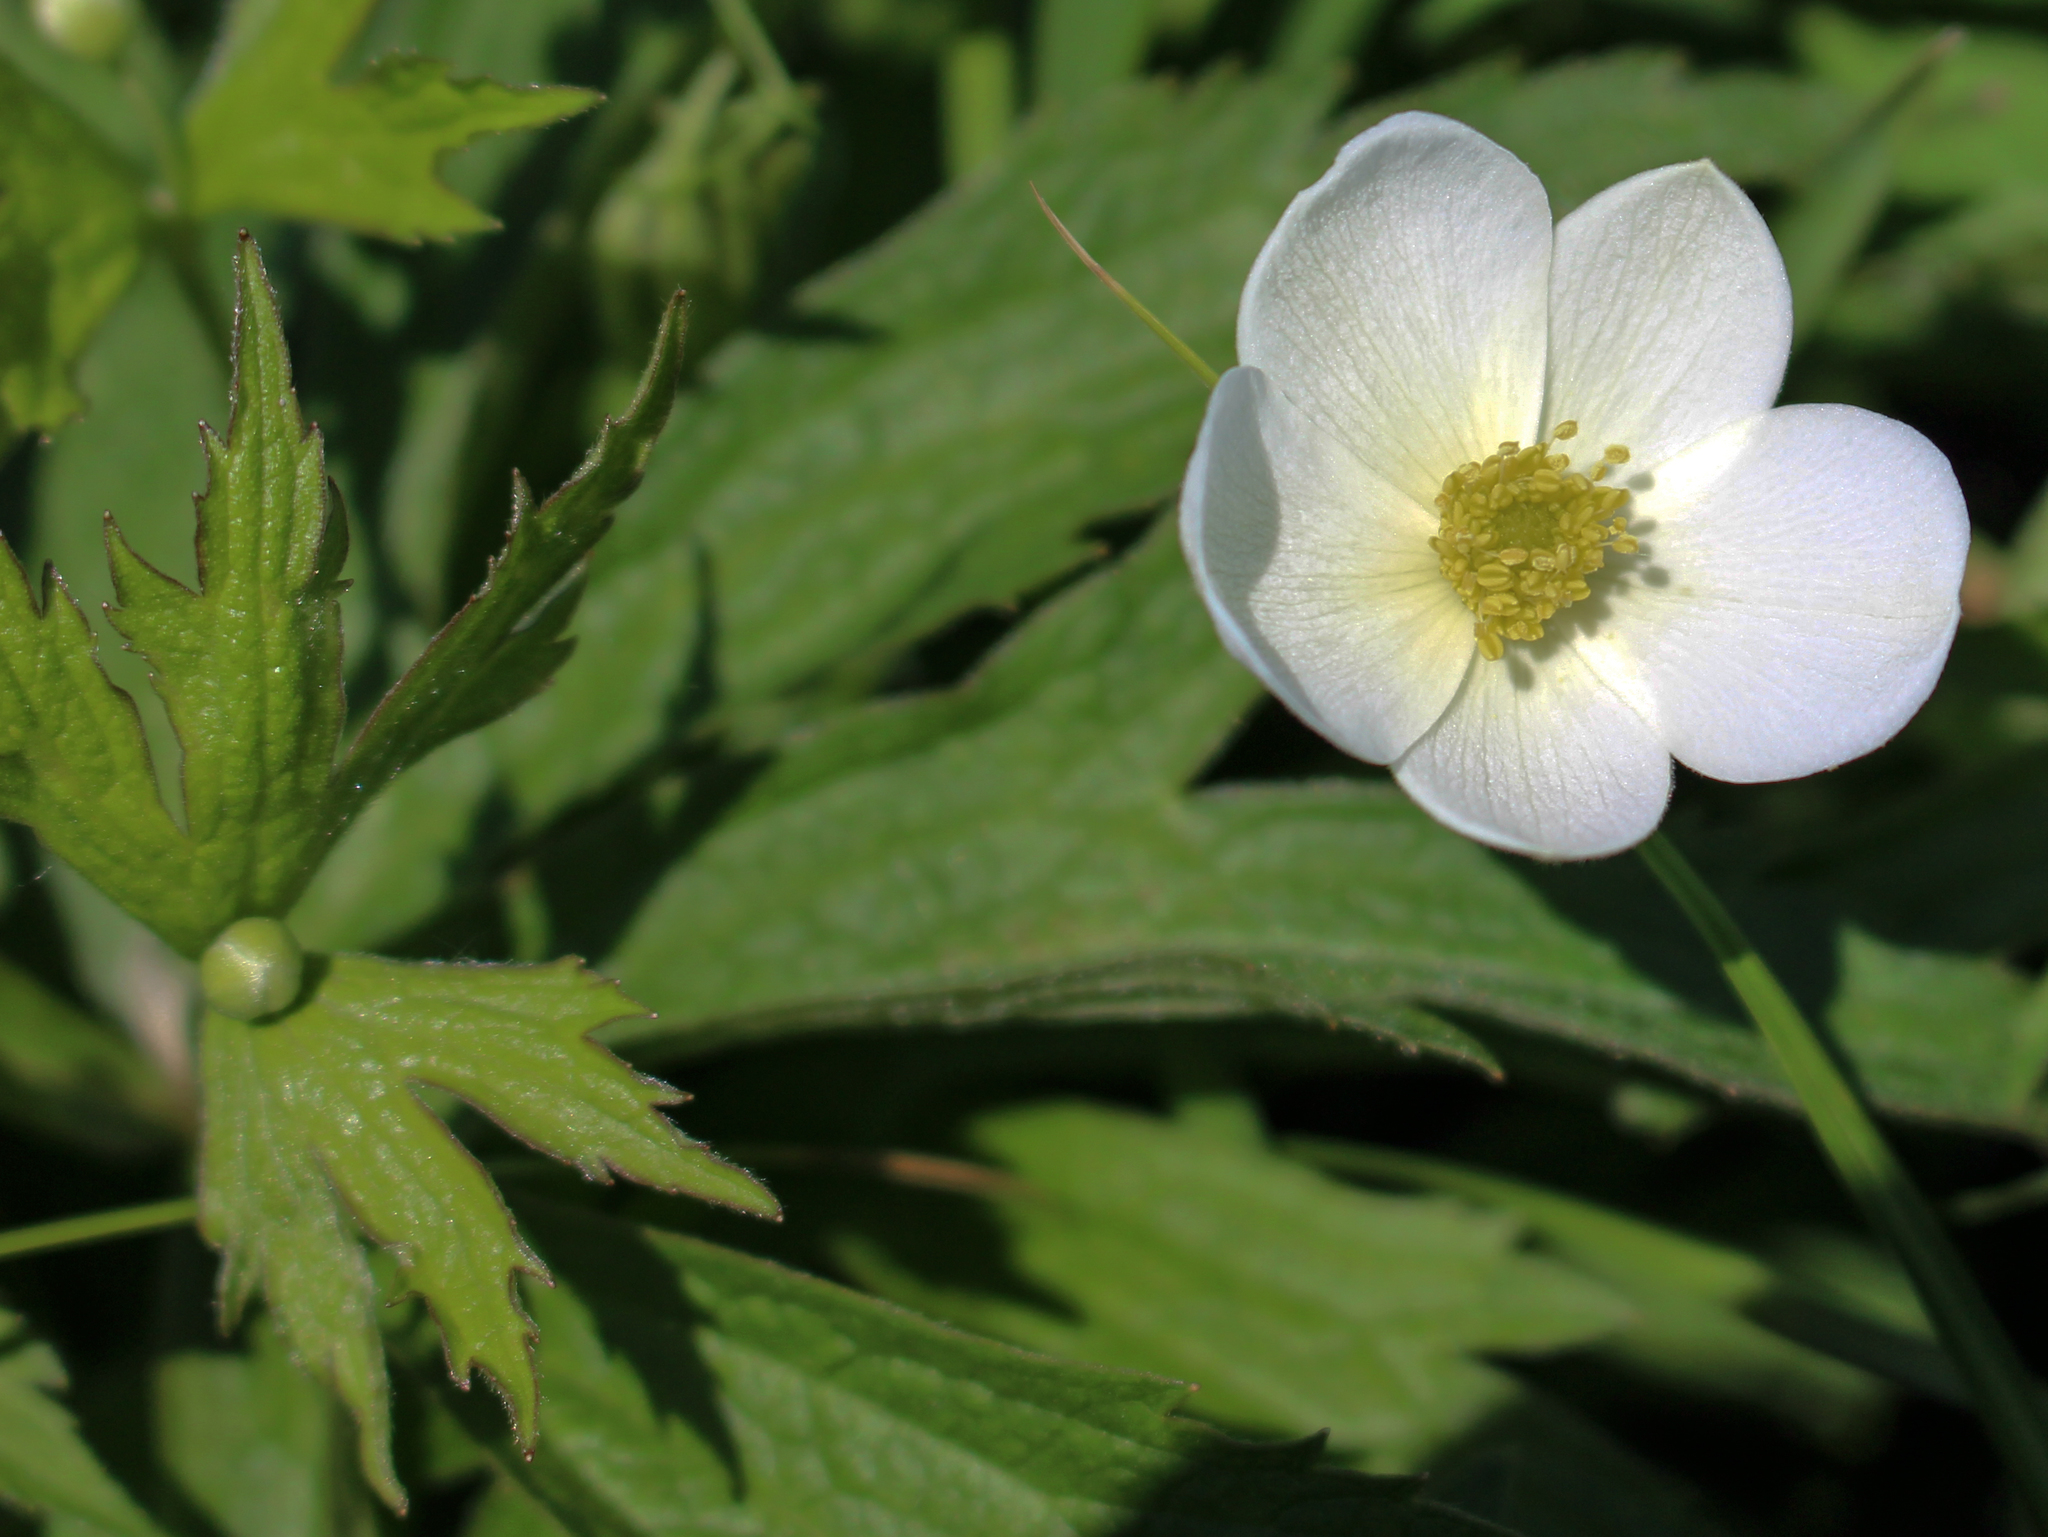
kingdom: Plantae
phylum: Tracheophyta
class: Magnoliopsida
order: Ranunculales
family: Ranunculaceae
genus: Anemonastrum
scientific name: Anemonastrum canadense
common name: Canada anemone
